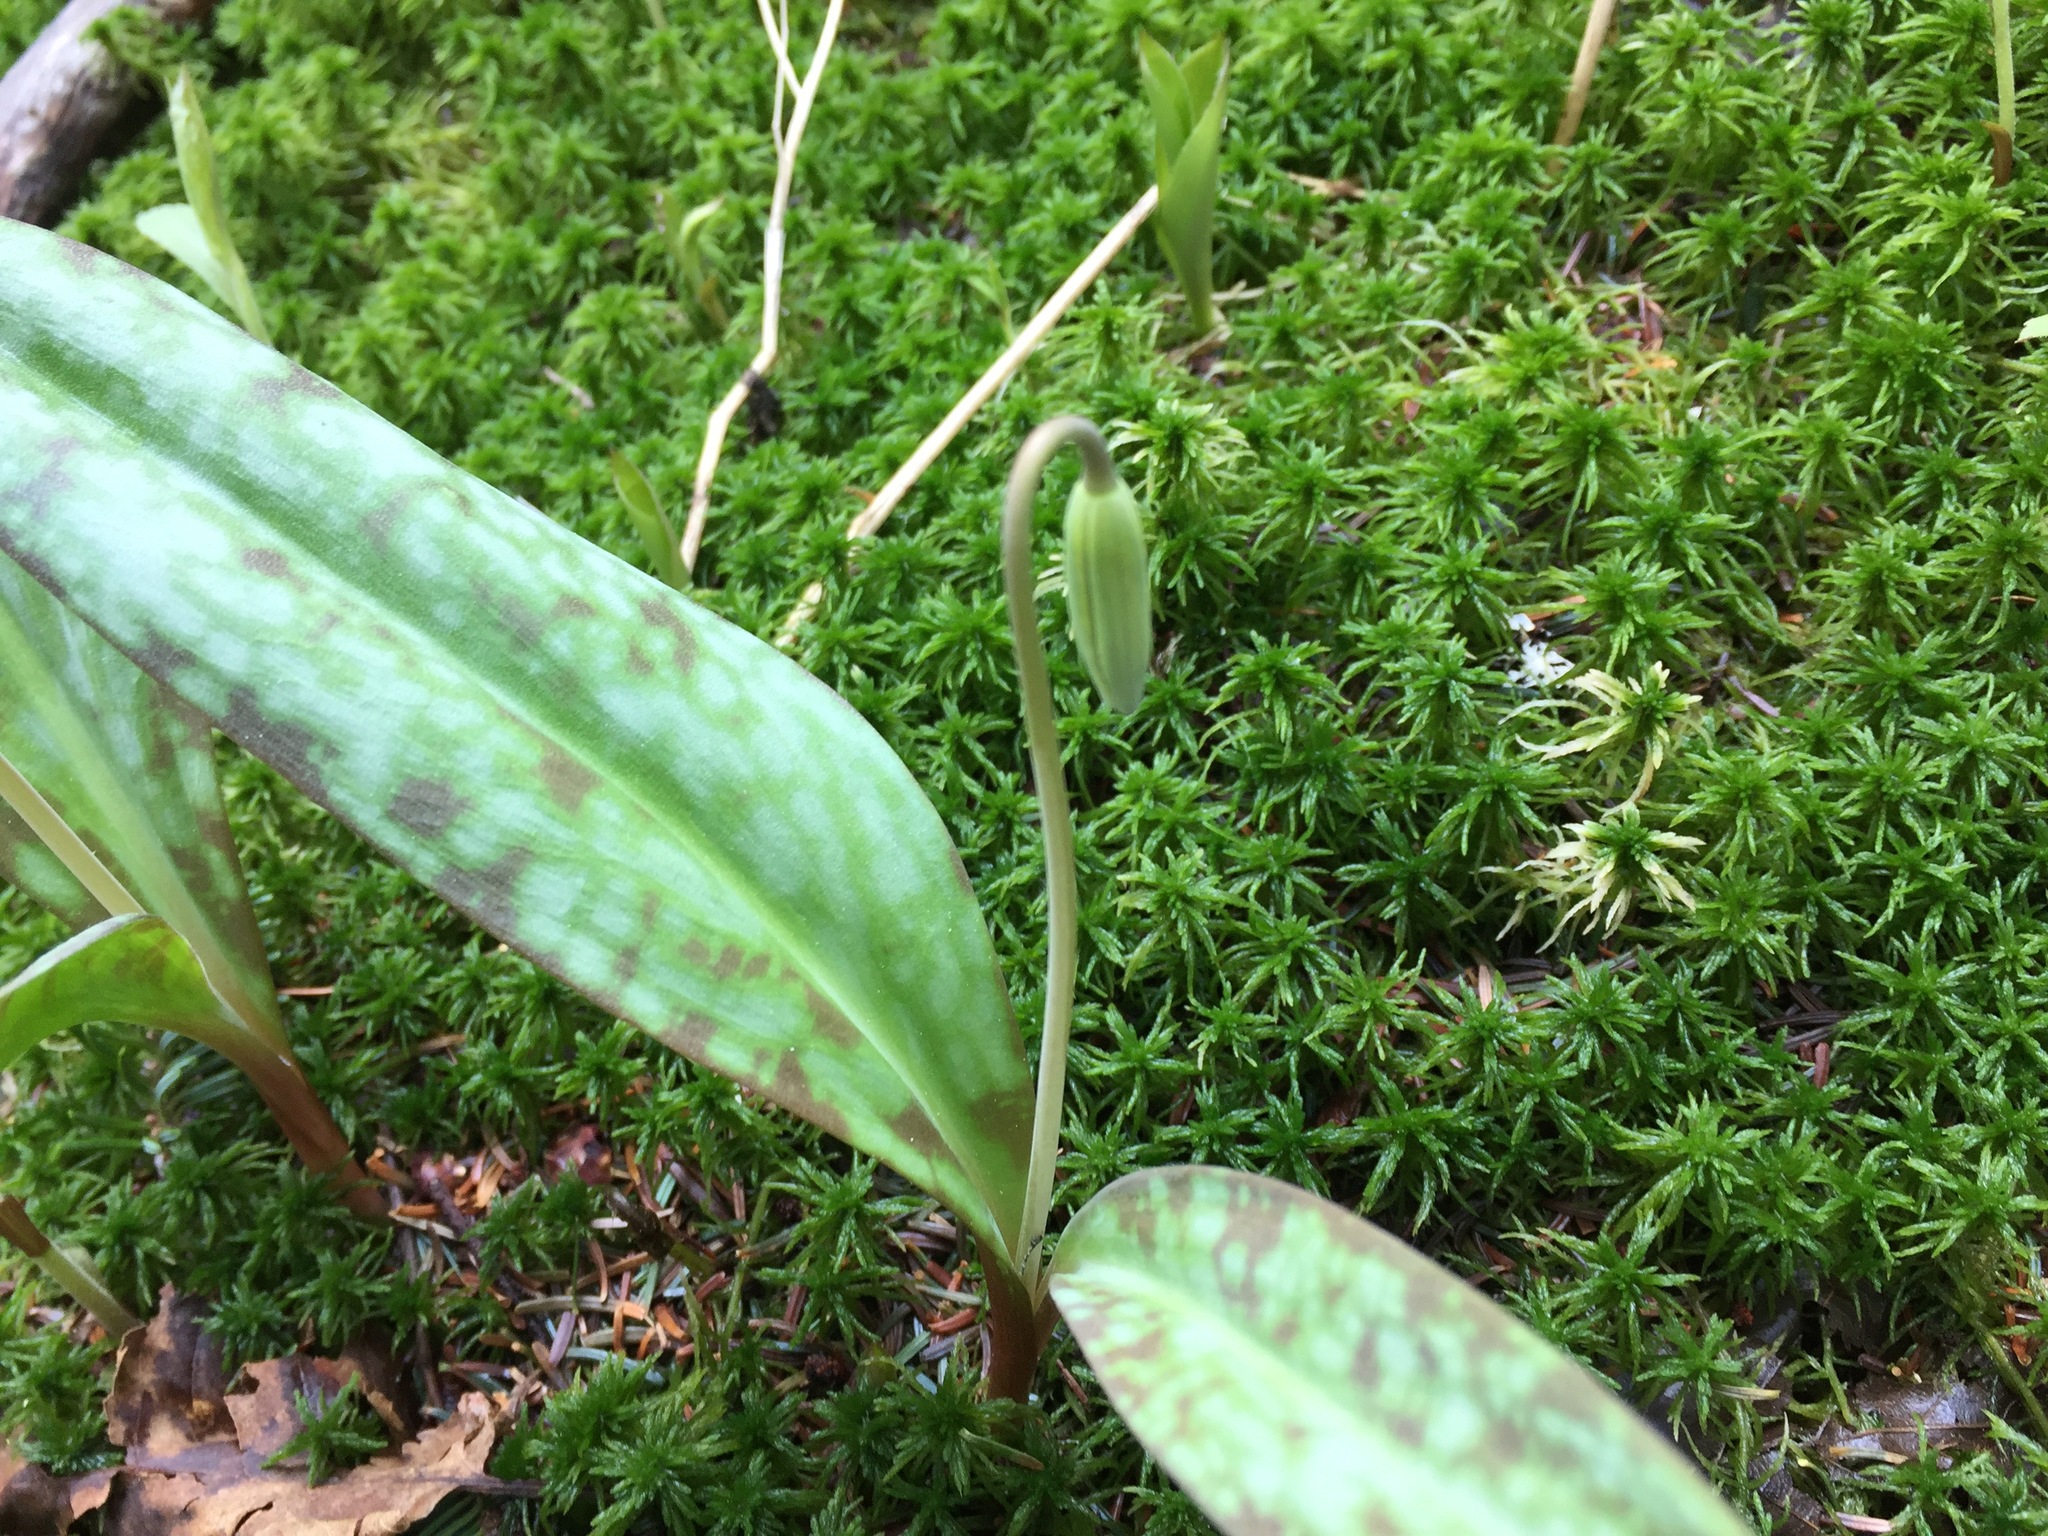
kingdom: Plantae
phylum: Tracheophyta
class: Liliopsida
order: Liliales
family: Liliaceae
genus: Erythronium
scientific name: Erythronium americanum
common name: Yellow adder's-tongue
